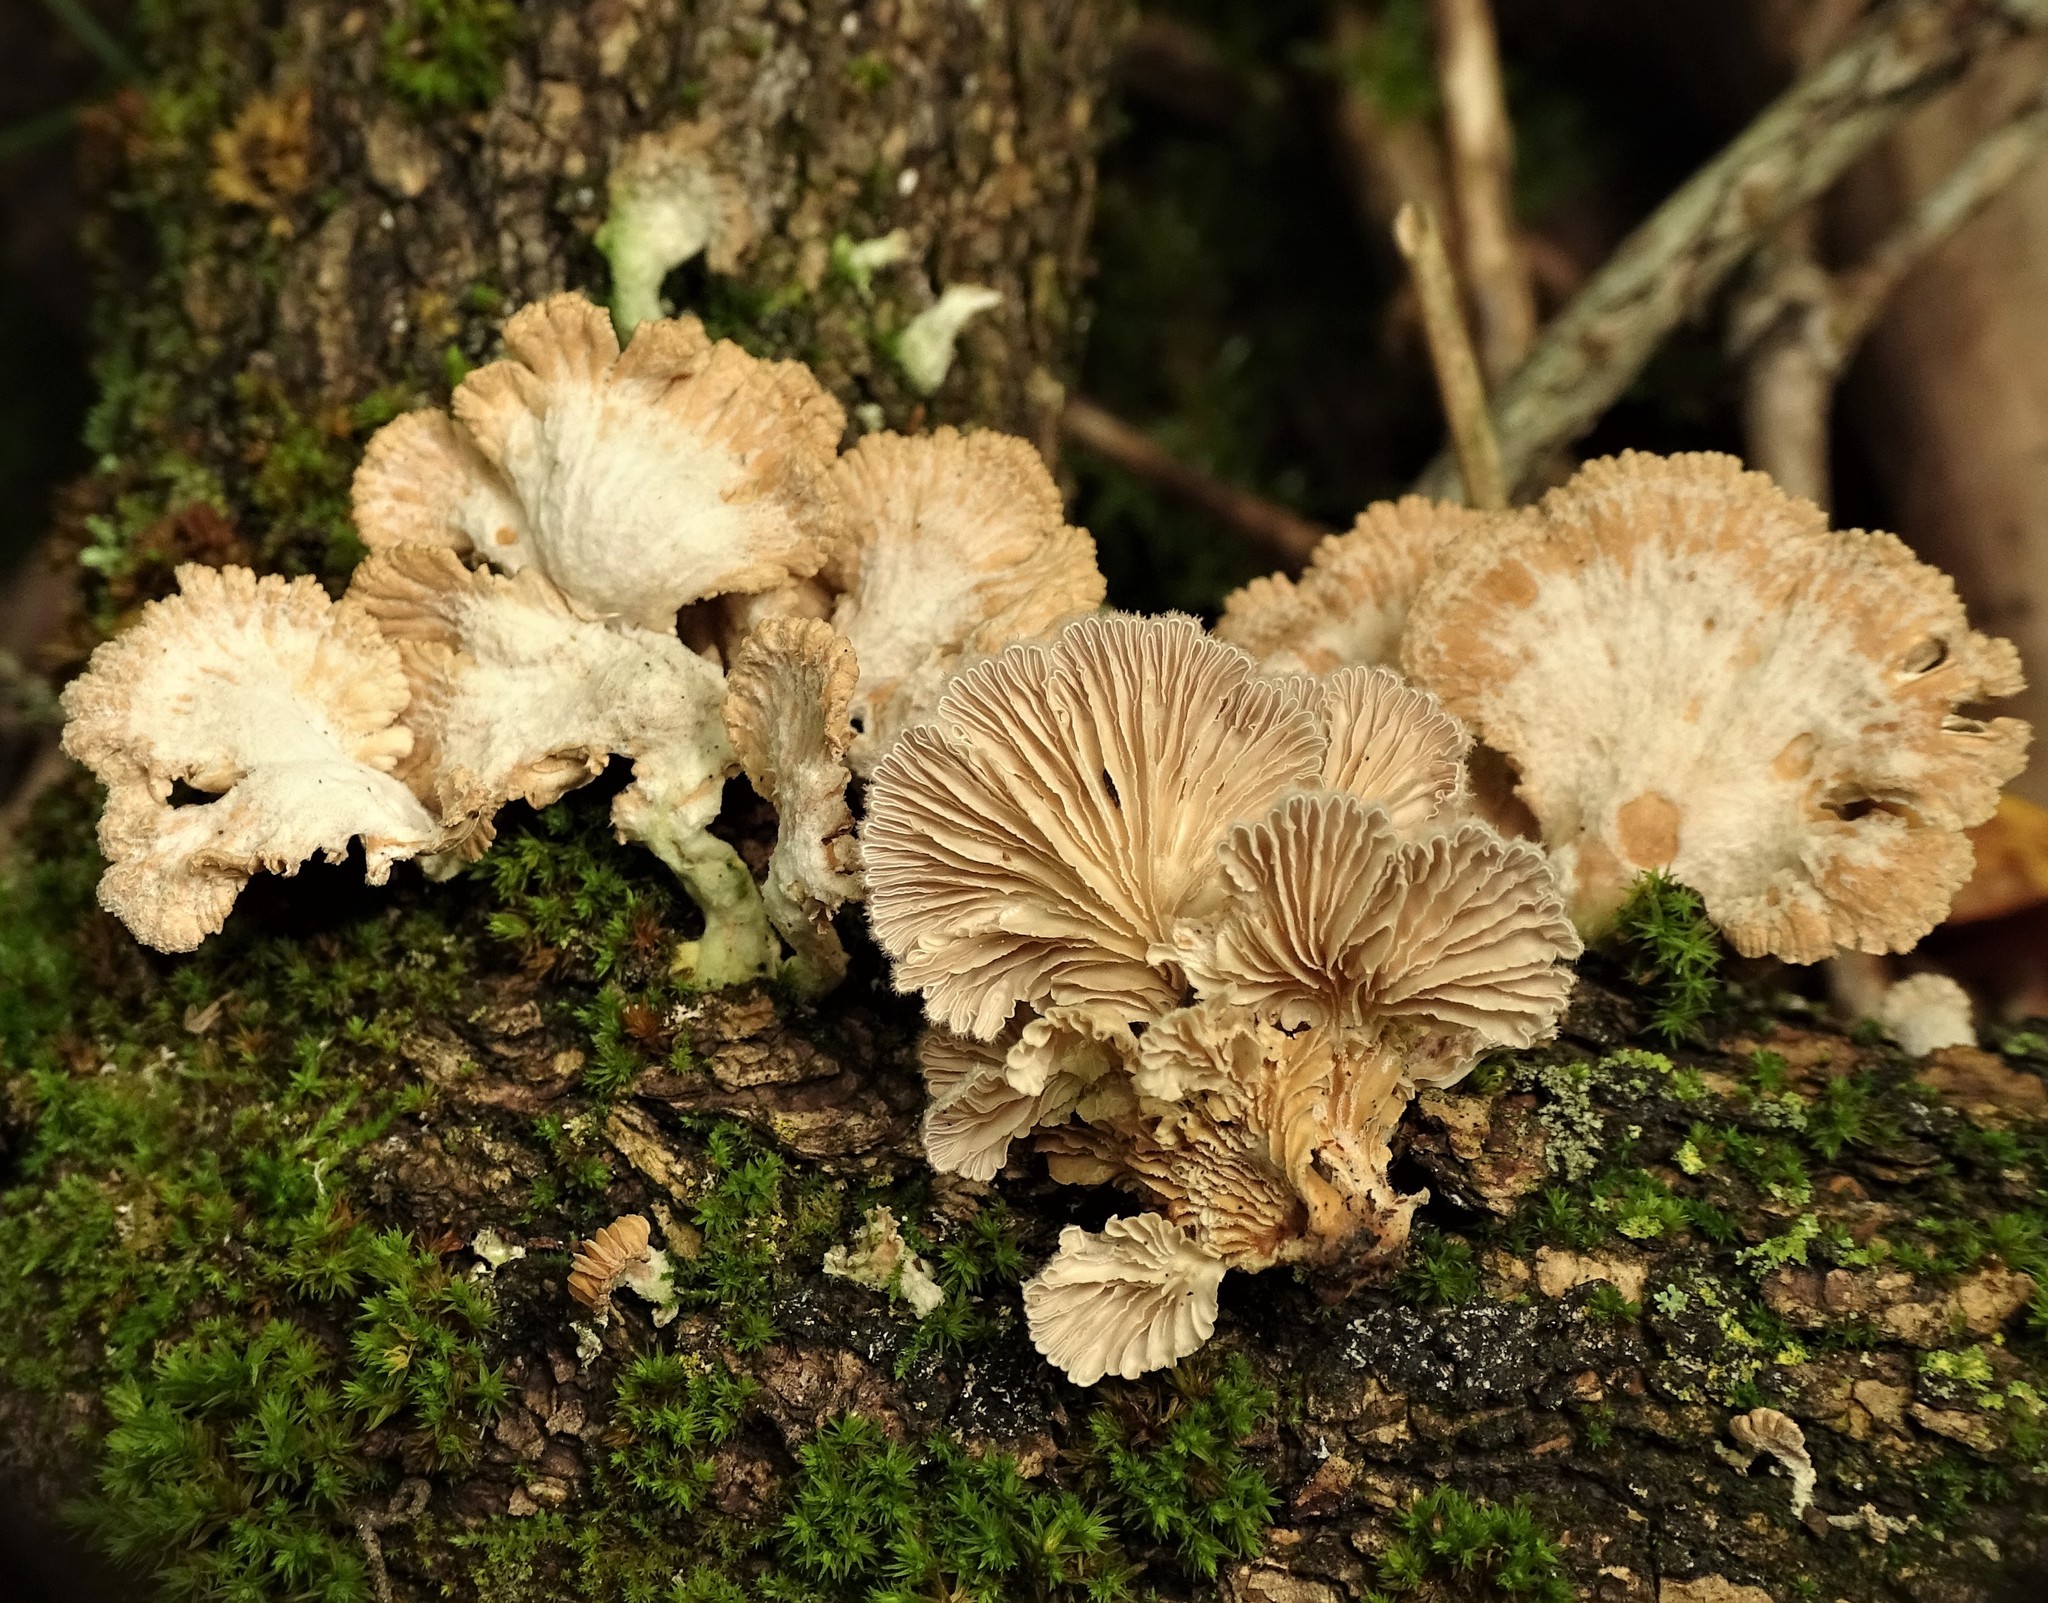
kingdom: Fungi
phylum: Basidiomycota
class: Agaricomycetes
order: Agaricales
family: Schizophyllaceae
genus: Schizophyllum
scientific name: Schizophyllum commune
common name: Common porecrust
